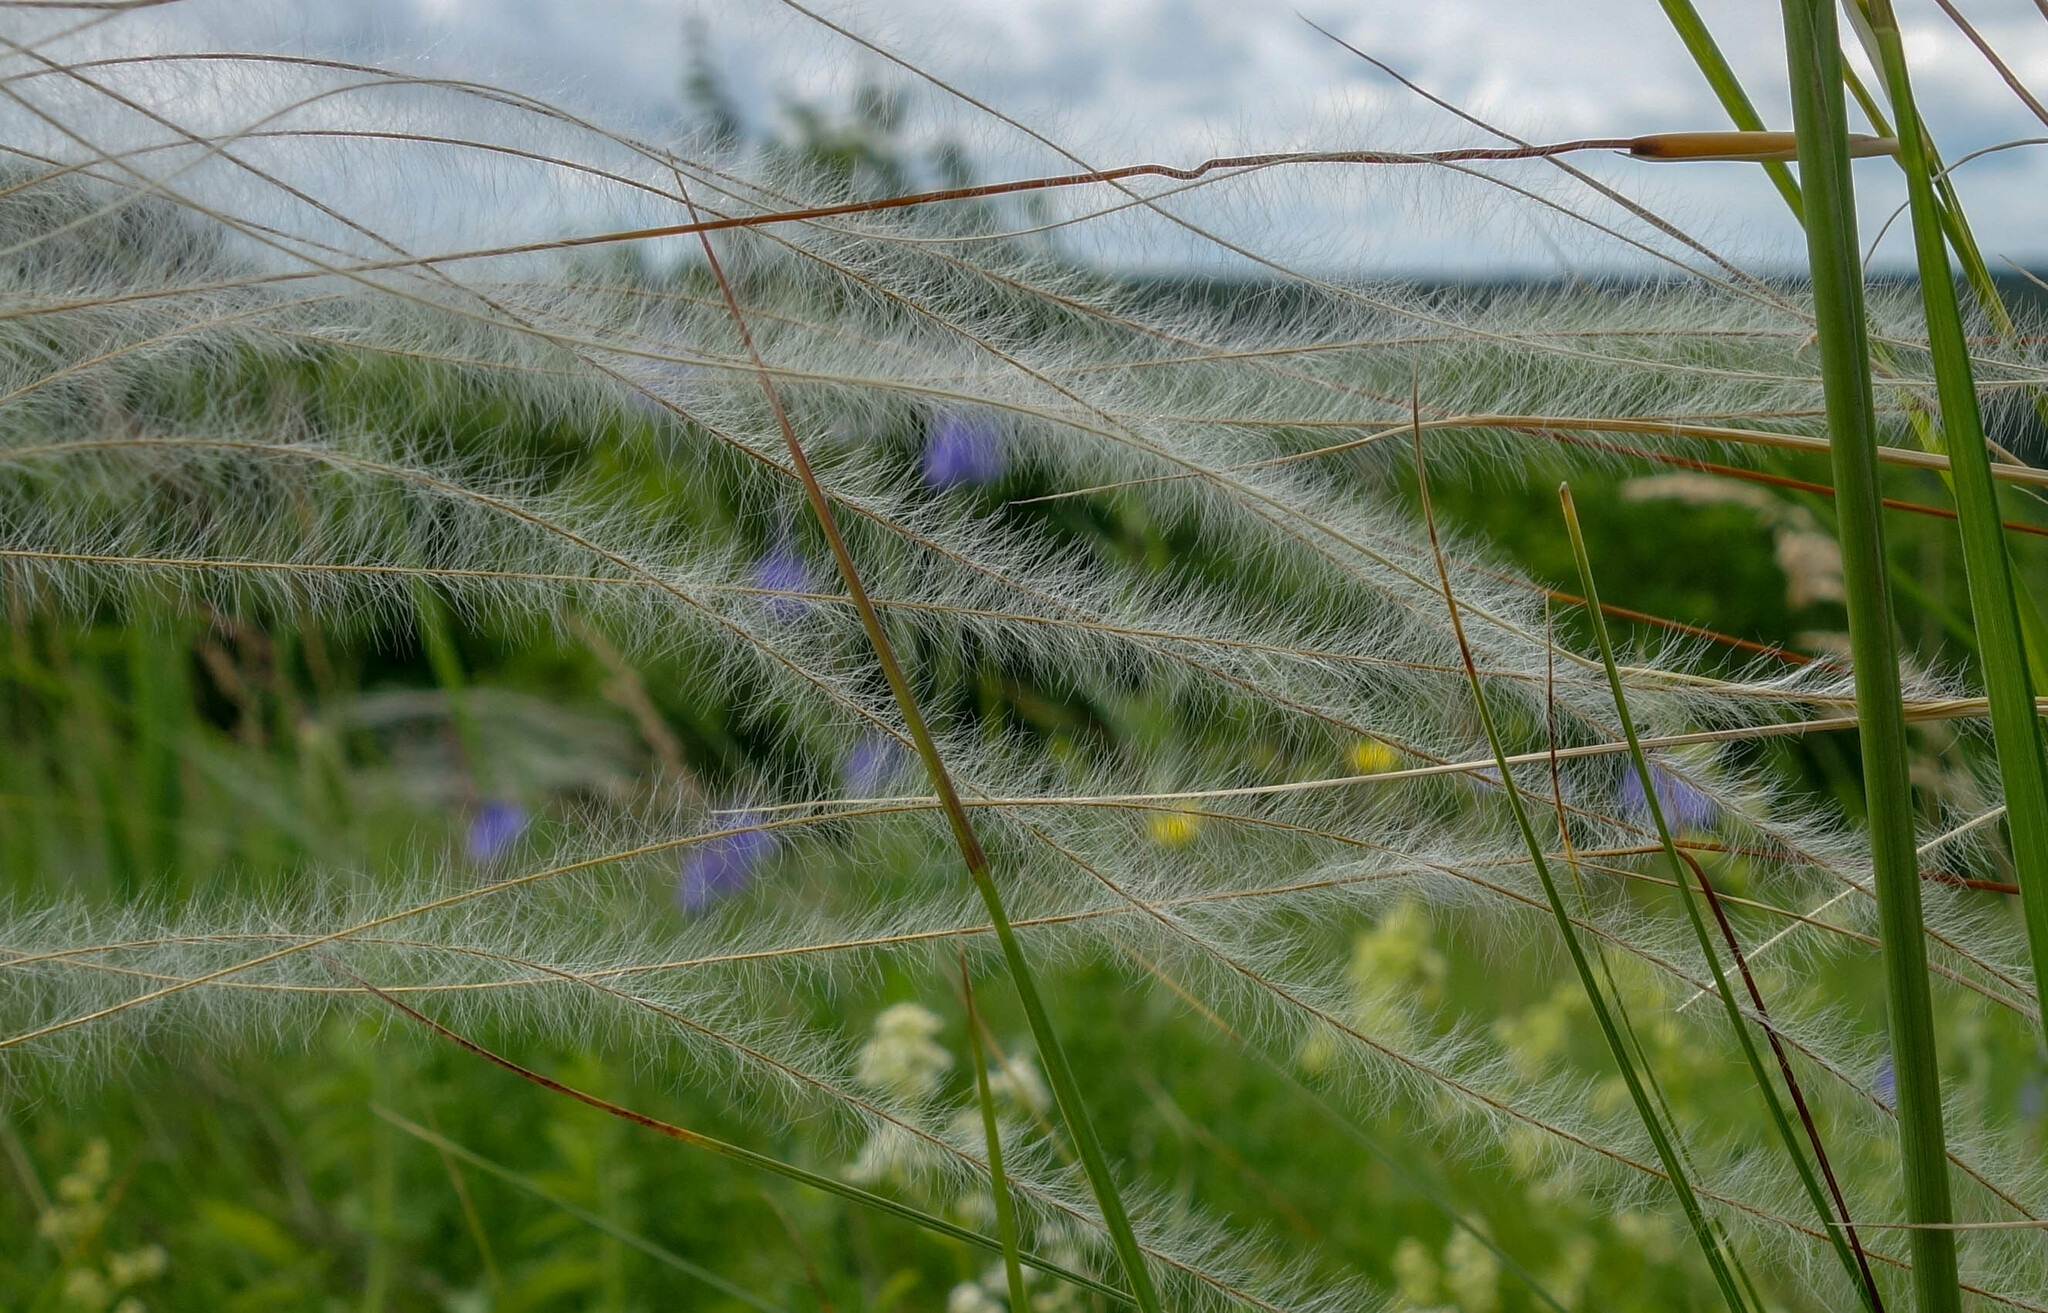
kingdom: Plantae
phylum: Tracheophyta
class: Liliopsida
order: Poales
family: Poaceae
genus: Stipa
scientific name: Stipa pennata
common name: European feather grass
